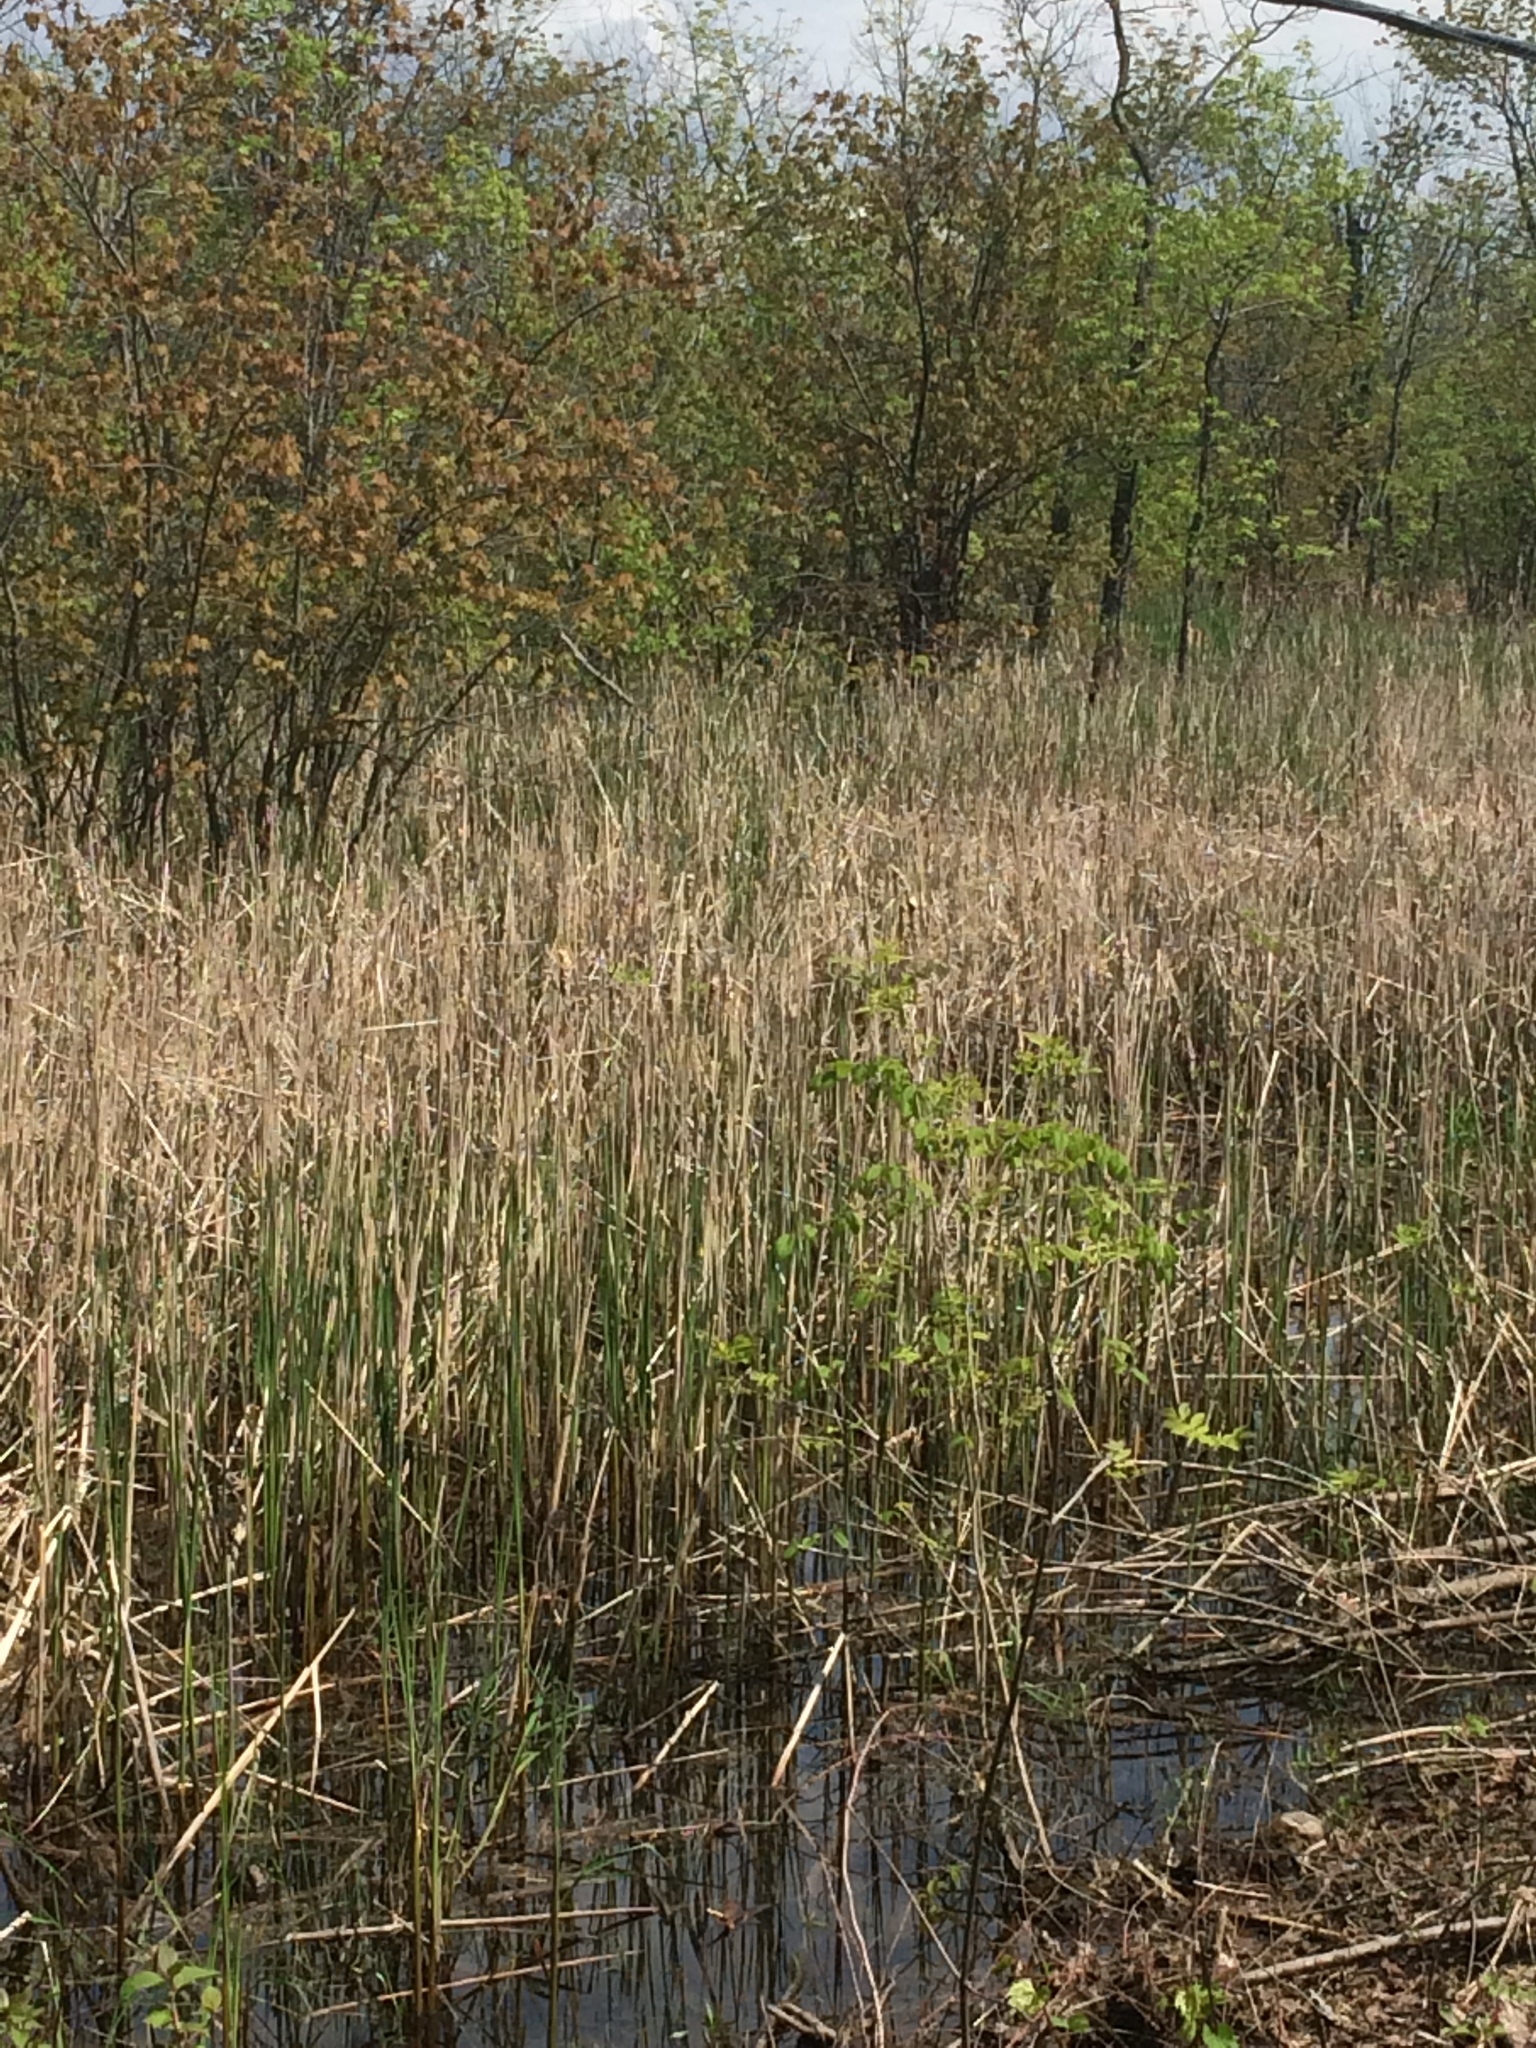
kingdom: Plantae
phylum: Tracheophyta
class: Liliopsida
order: Poales
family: Typhaceae
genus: Typha
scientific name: Typha angustifolia
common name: Lesser bulrush
